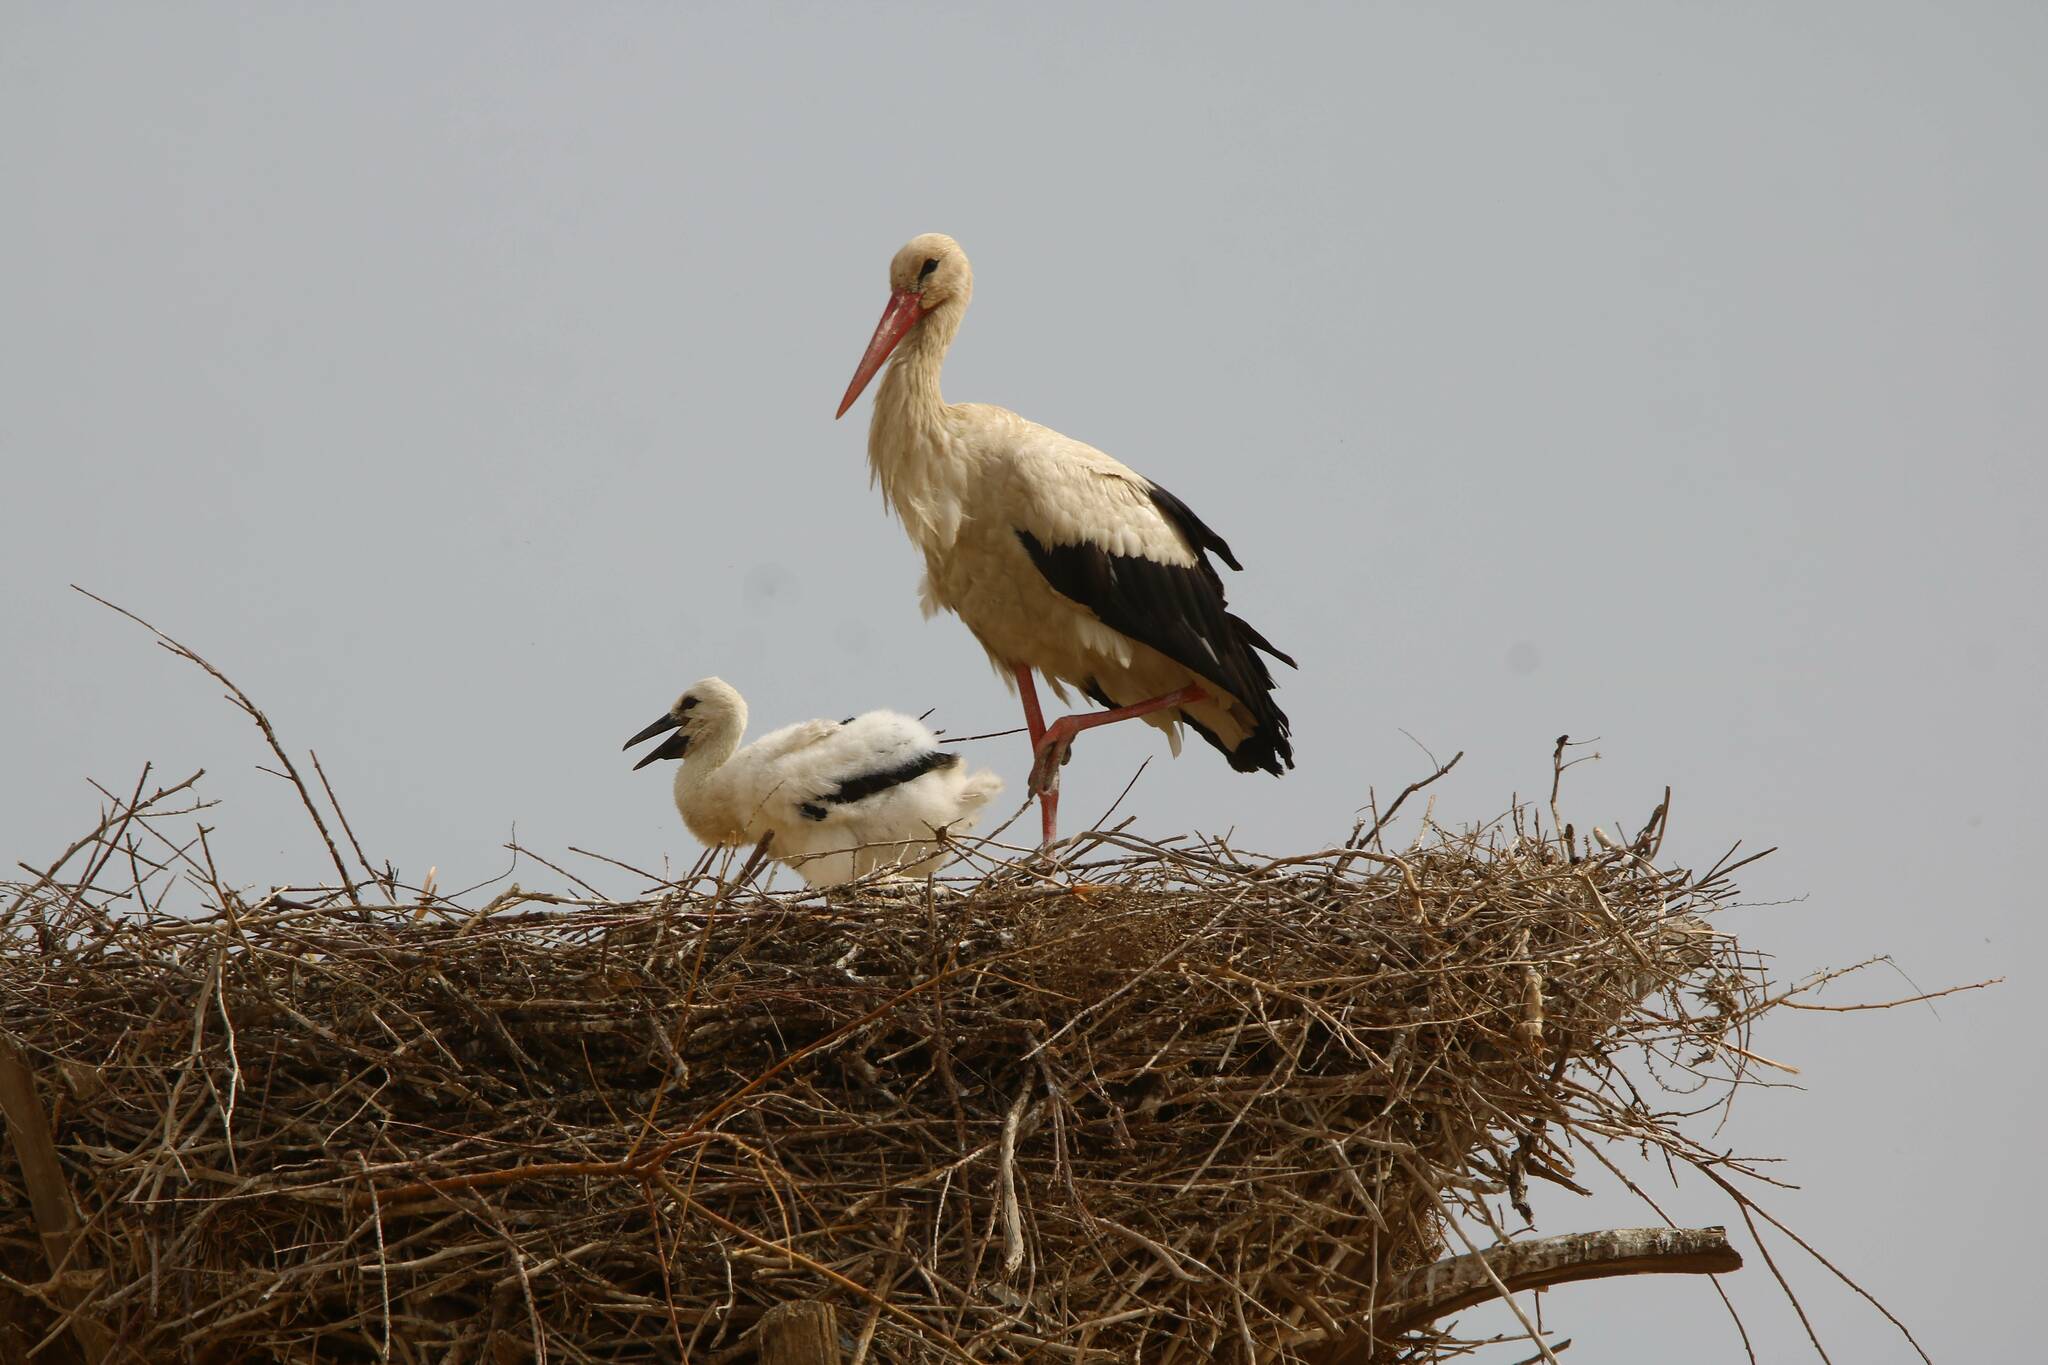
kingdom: Animalia
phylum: Chordata
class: Aves
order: Ciconiiformes
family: Ciconiidae
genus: Ciconia
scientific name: Ciconia ciconia
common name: White stork
